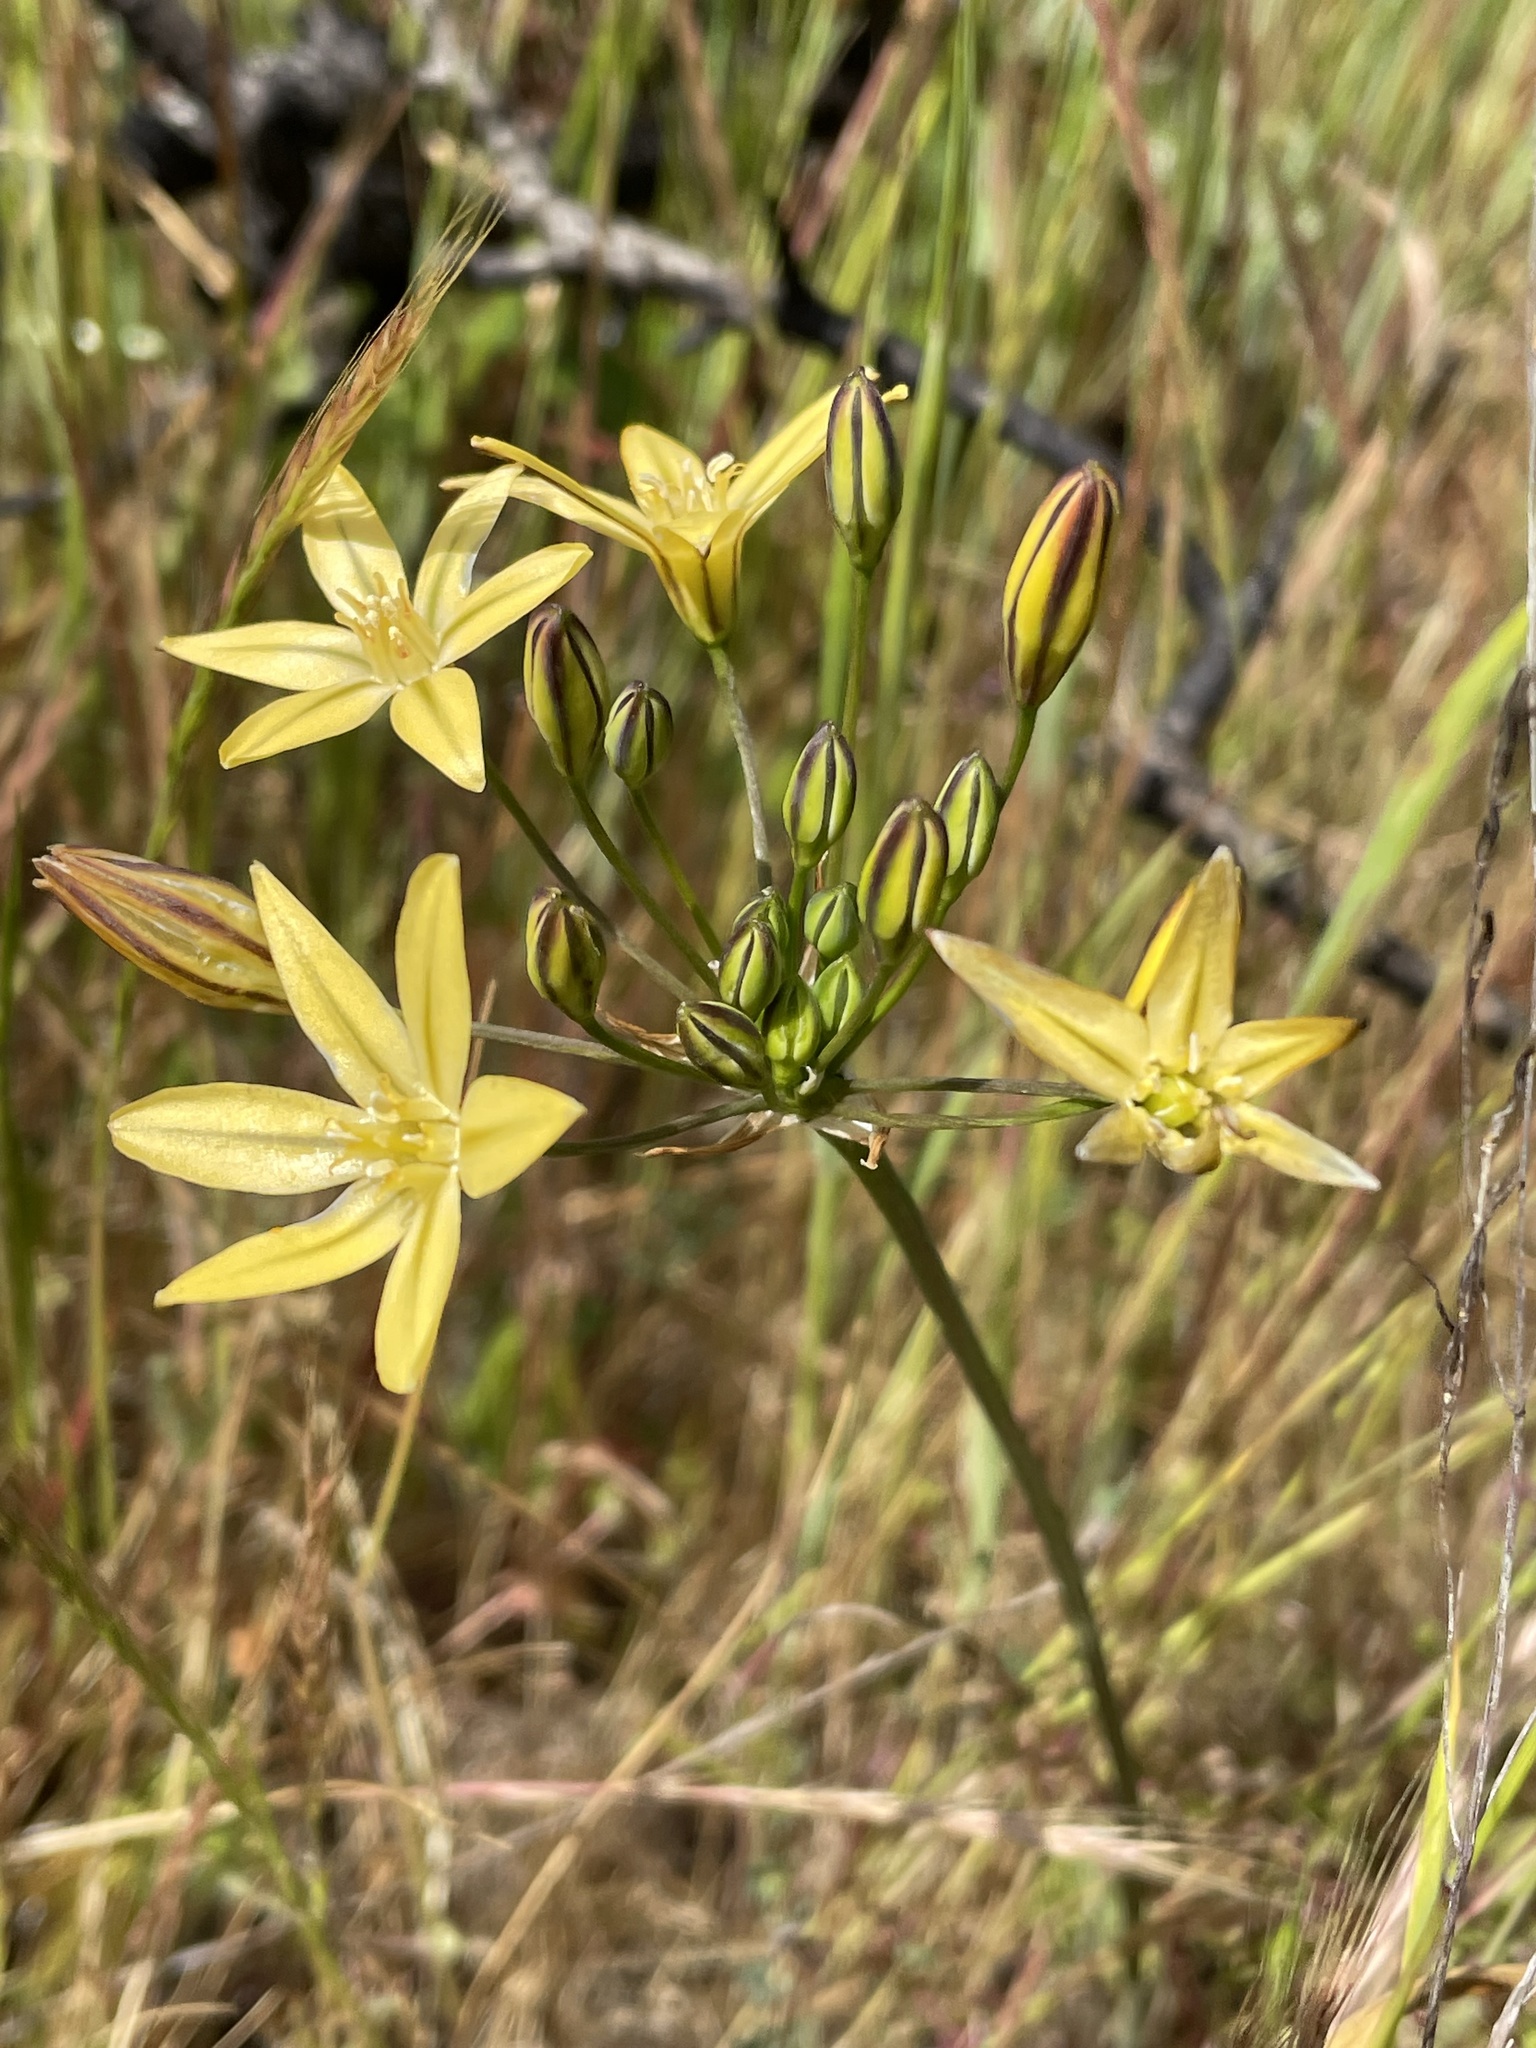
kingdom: Plantae
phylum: Tracheophyta
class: Liliopsida
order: Asparagales
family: Asparagaceae
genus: Triteleia
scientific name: Triteleia ixioides
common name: Yellow-brodiaea
